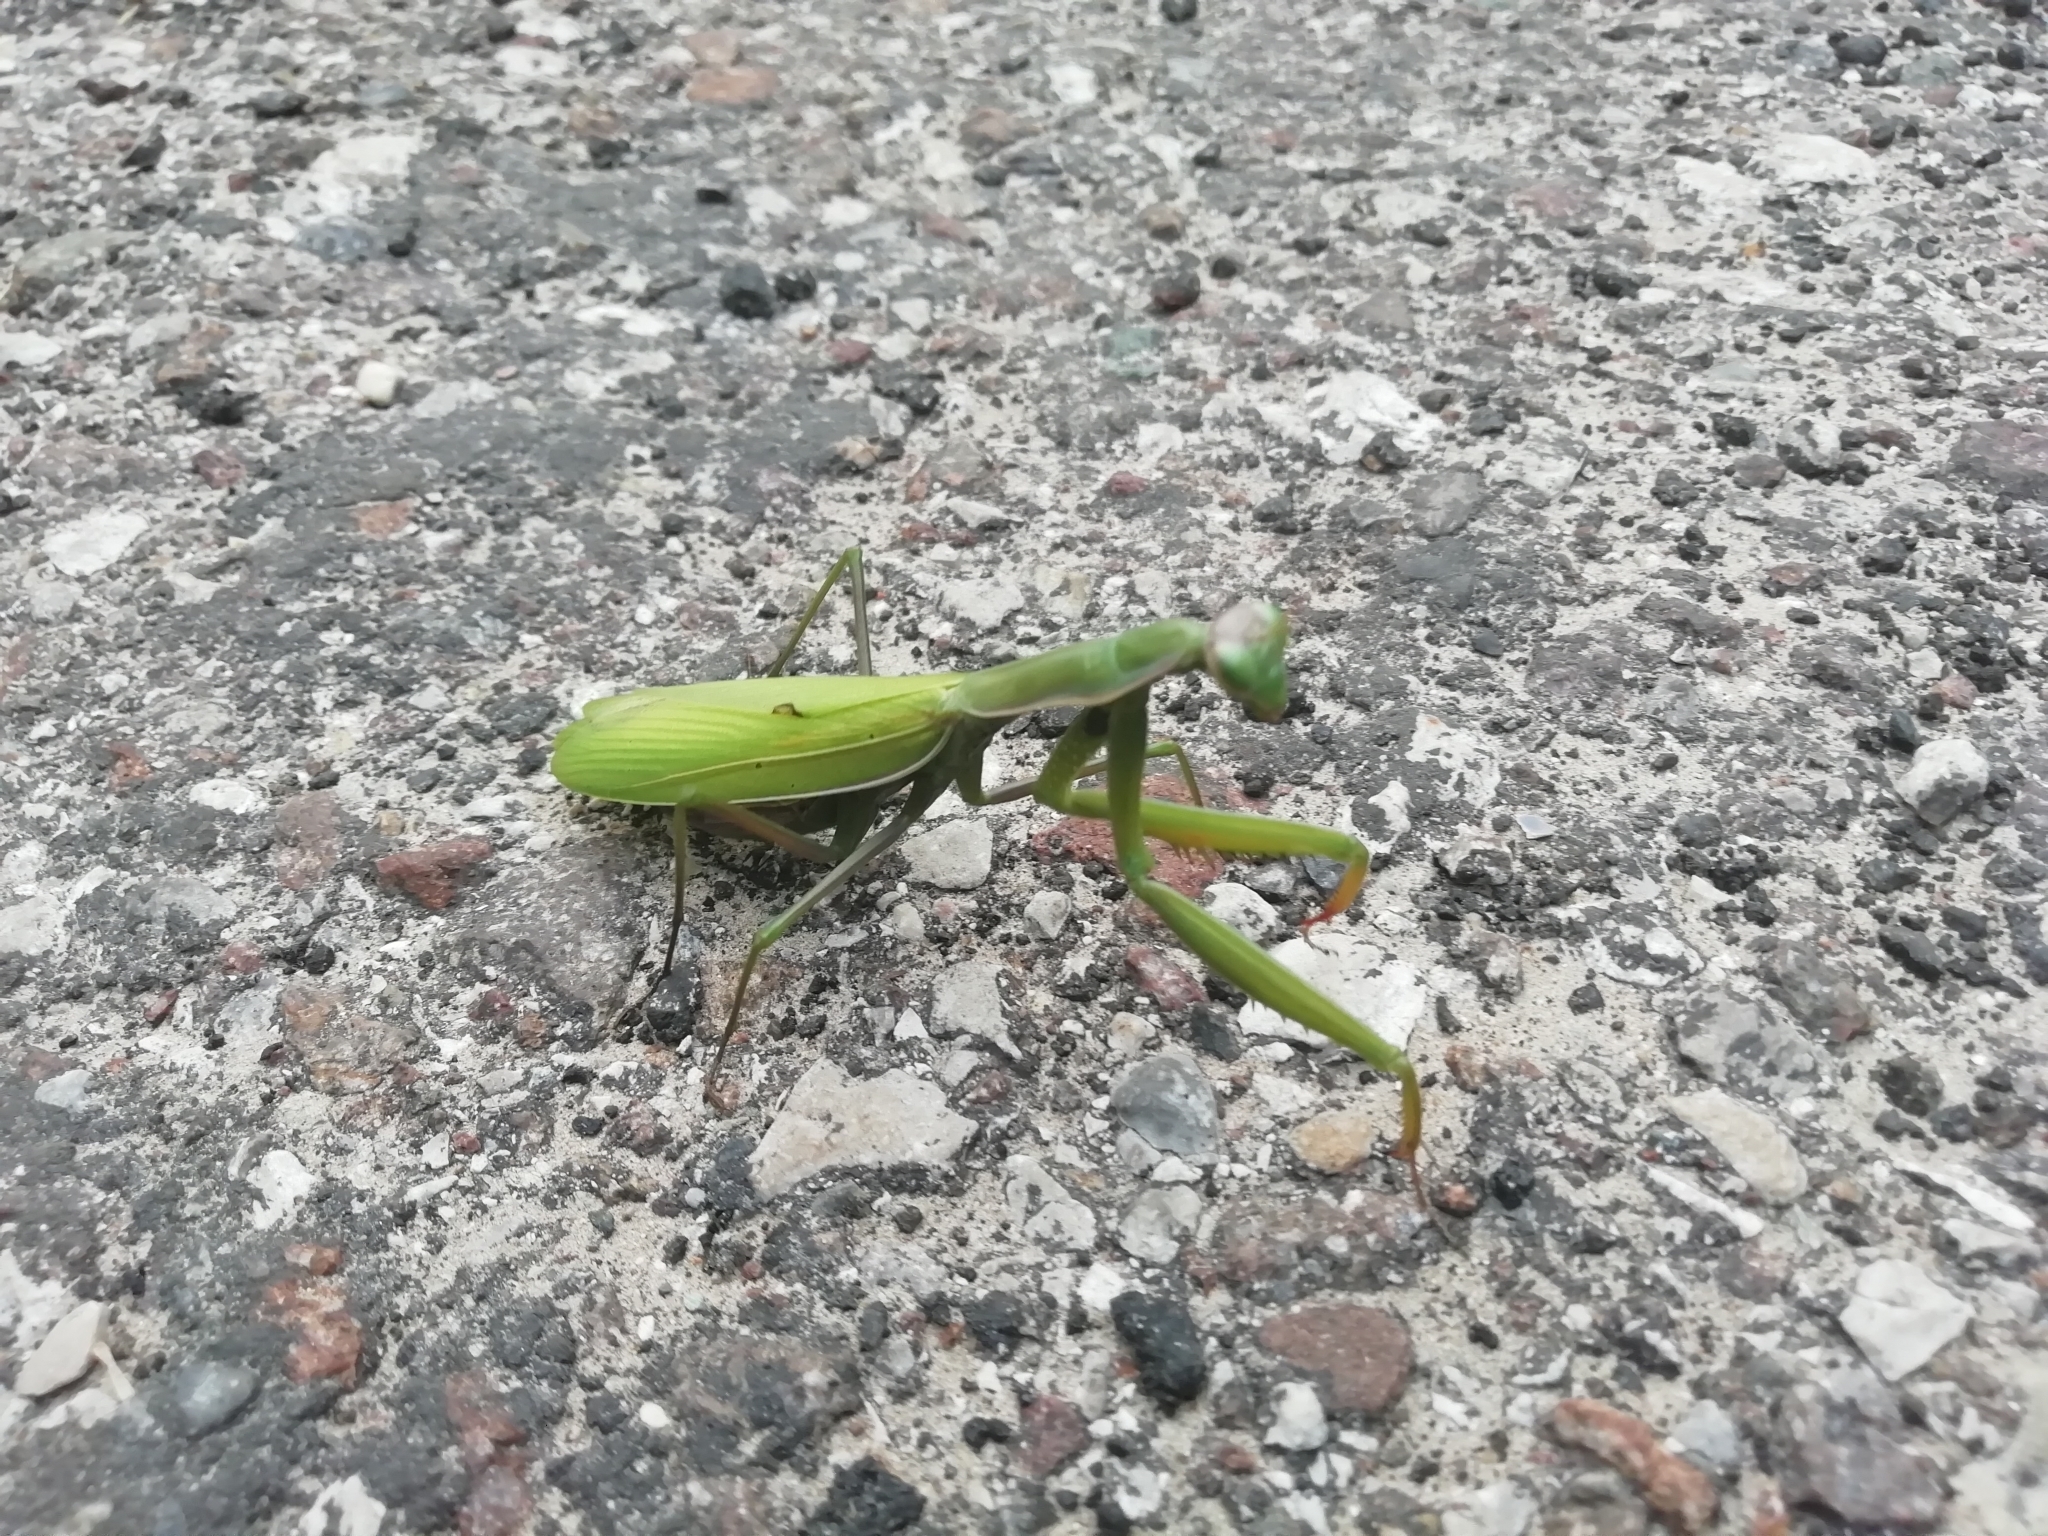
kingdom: Animalia
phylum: Arthropoda
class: Insecta
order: Mantodea
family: Mantidae
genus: Mantis
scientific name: Mantis religiosa
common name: Praying mantis
